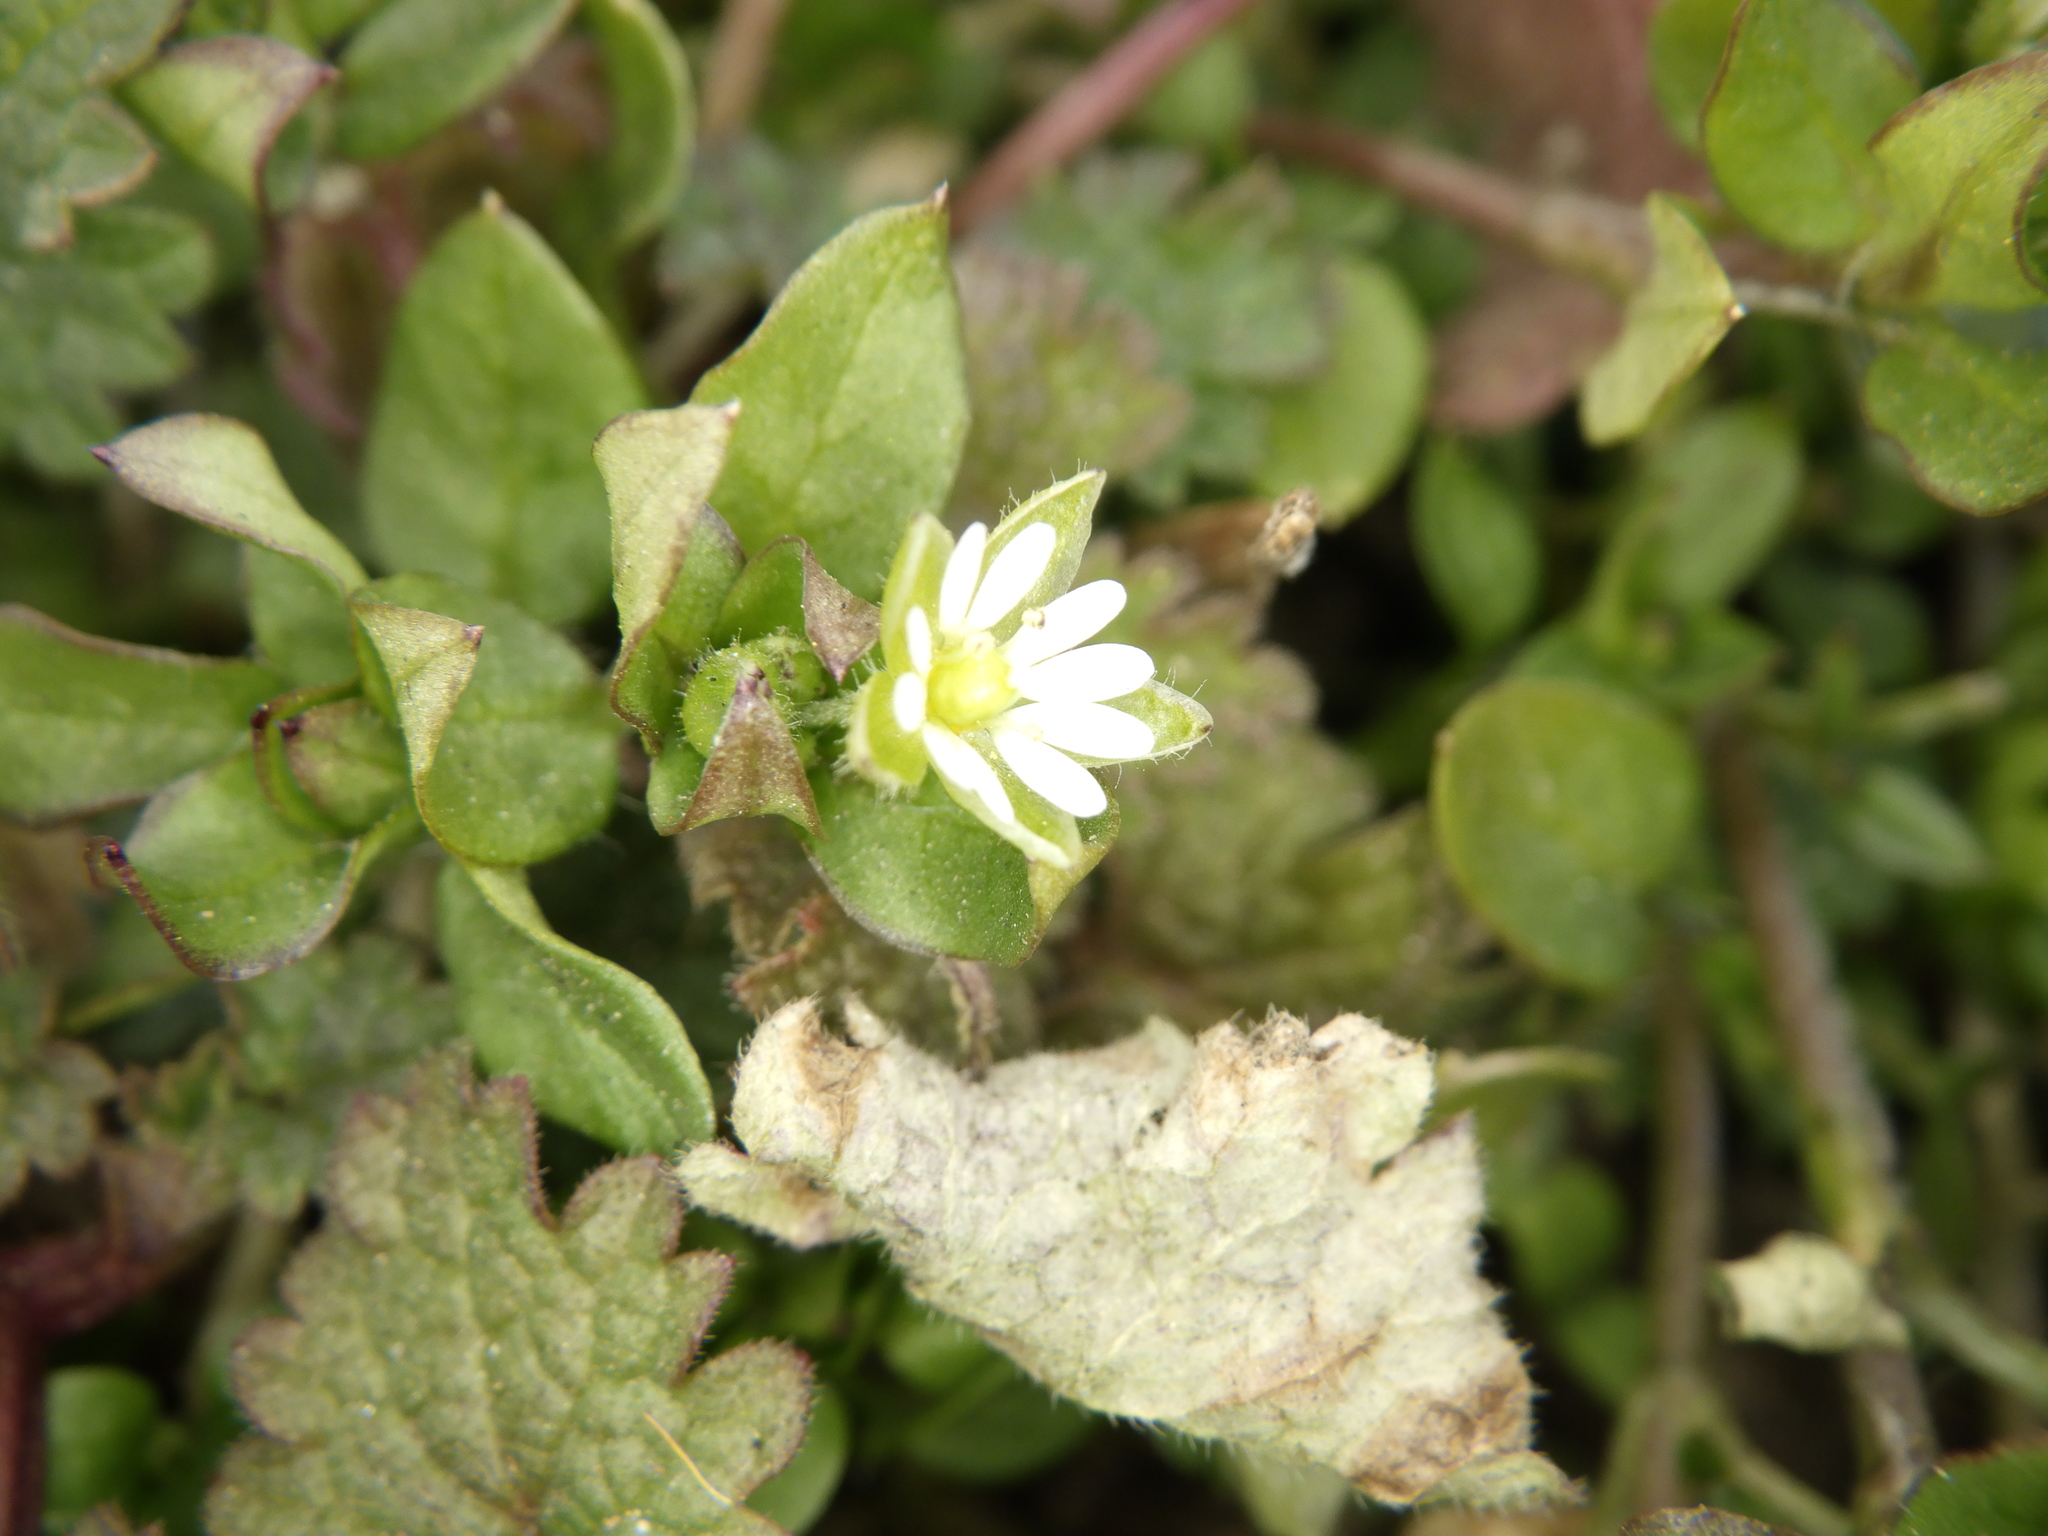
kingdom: Plantae
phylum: Tracheophyta
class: Magnoliopsida
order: Caryophyllales
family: Caryophyllaceae
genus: Stellaria
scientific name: Stellaria media
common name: Common chickweed
